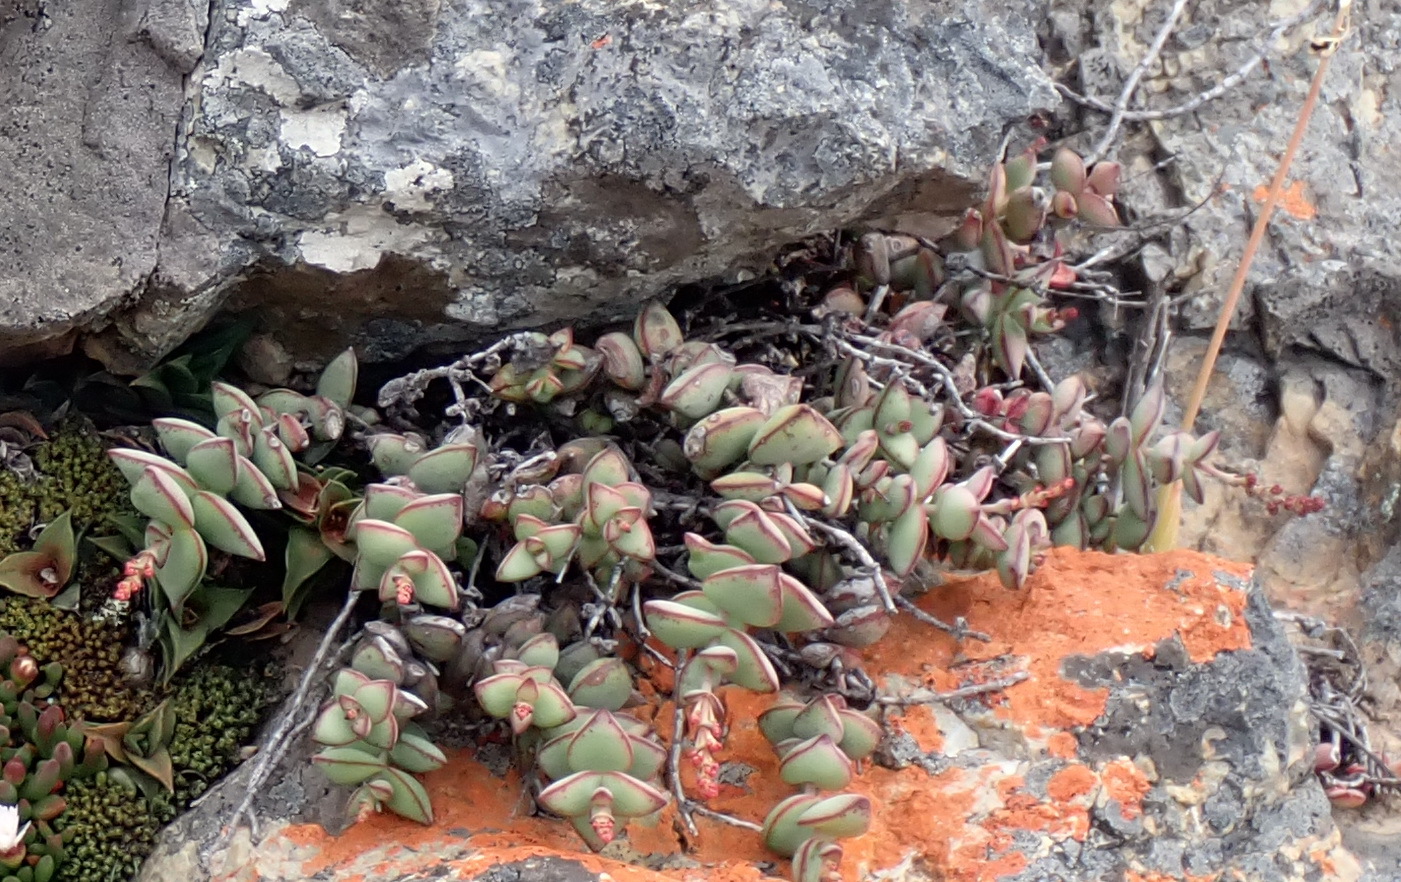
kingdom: Plantae
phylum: Tracheophyta
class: Magnoliopsida
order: Saxifragales
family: Crassulaceae
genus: Crassula
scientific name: Crassula rupestris
